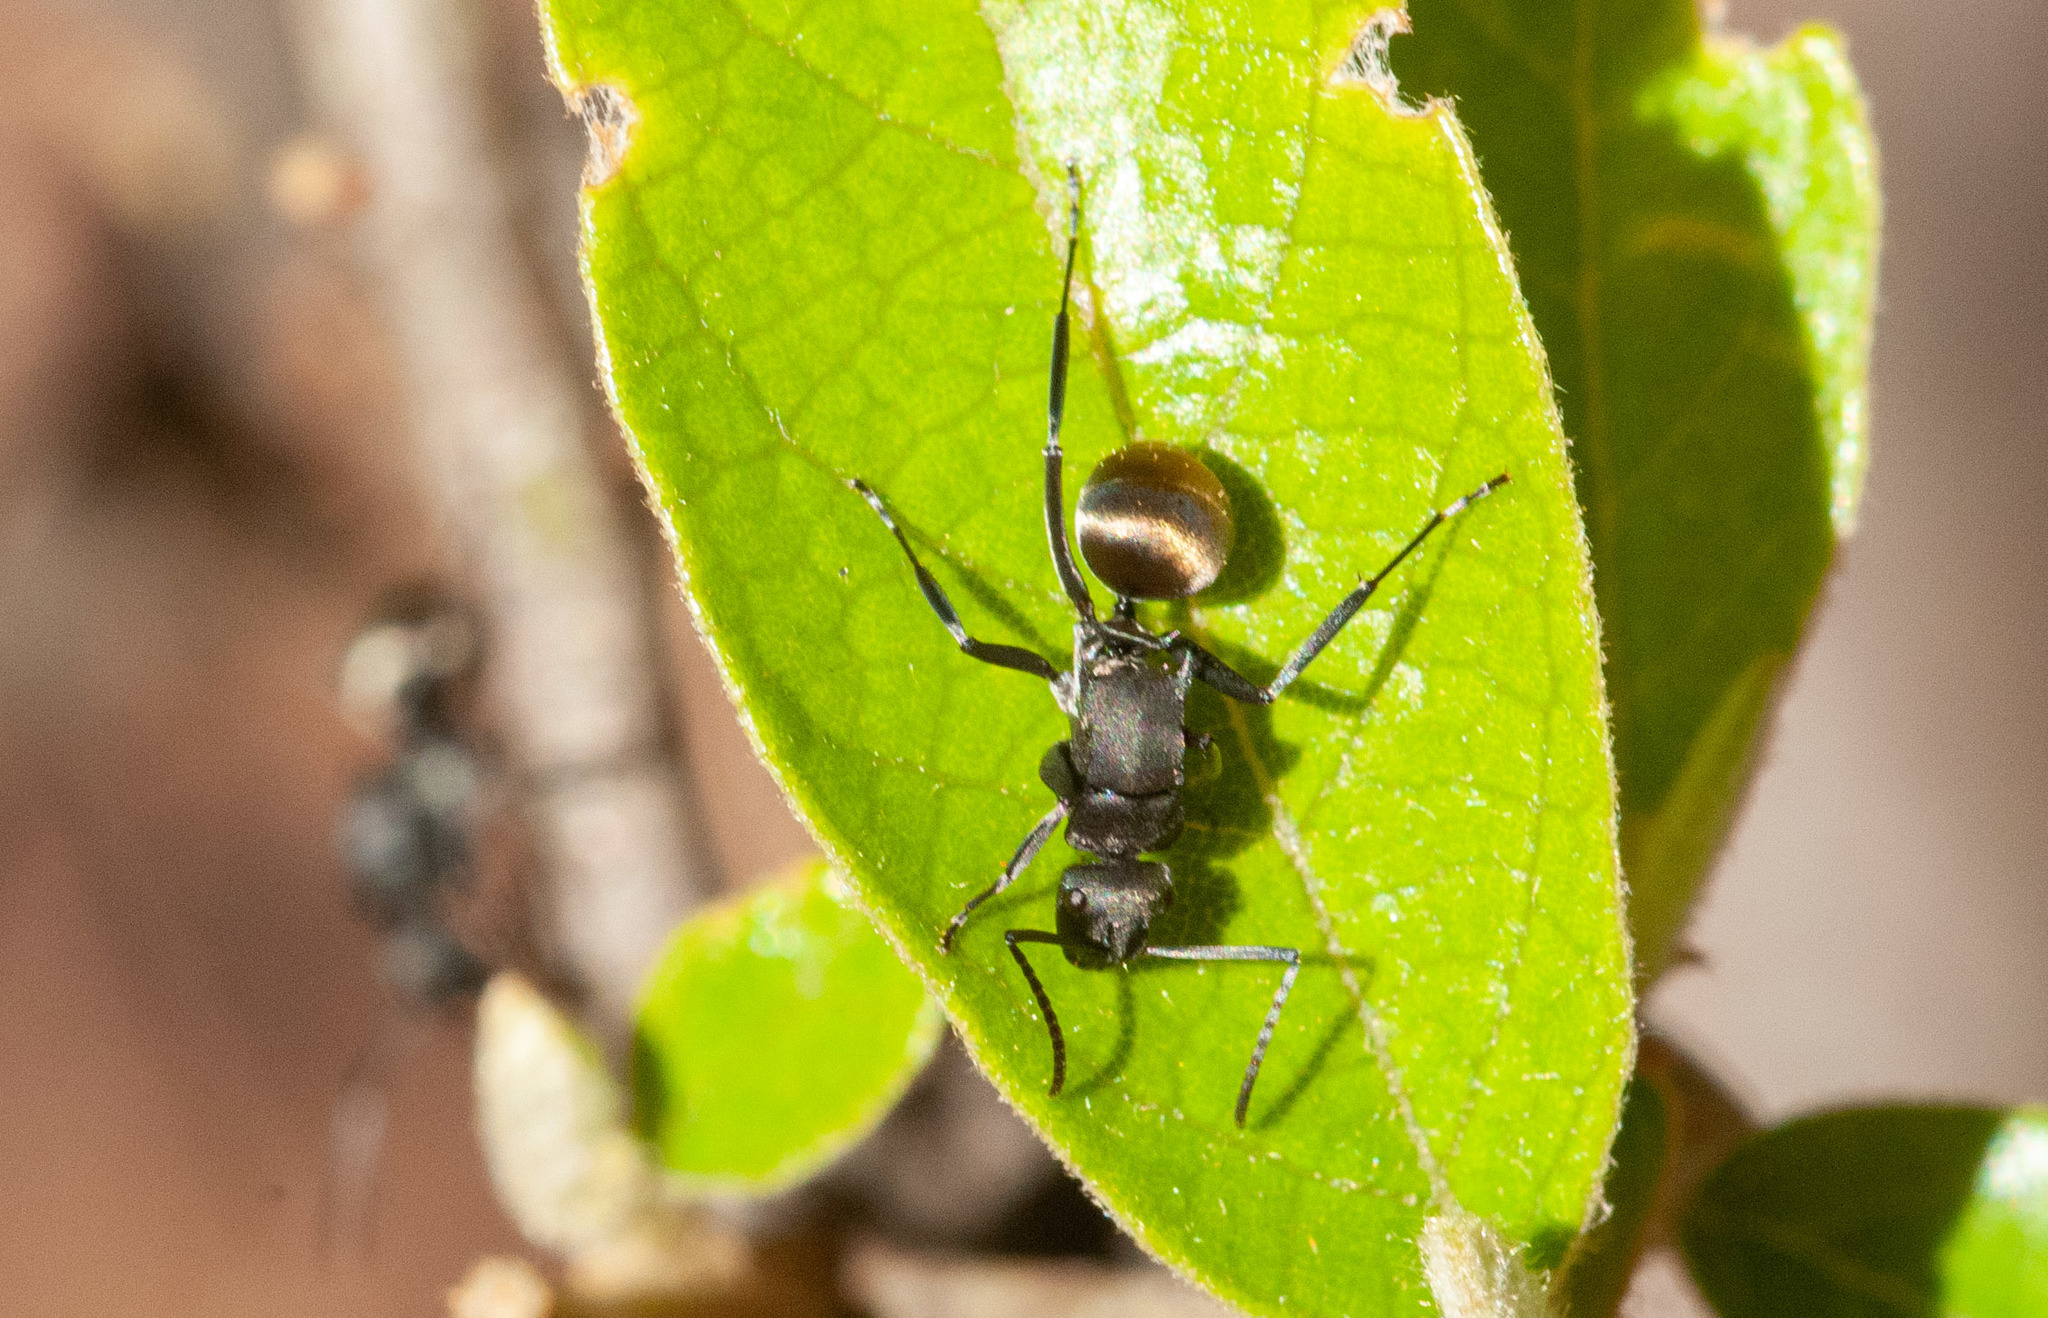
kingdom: Animalia
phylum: Arthropoda
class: Insecta
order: Hymenoptera
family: Formicidae
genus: Polyrhachis
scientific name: Polyrhachis tubifera
